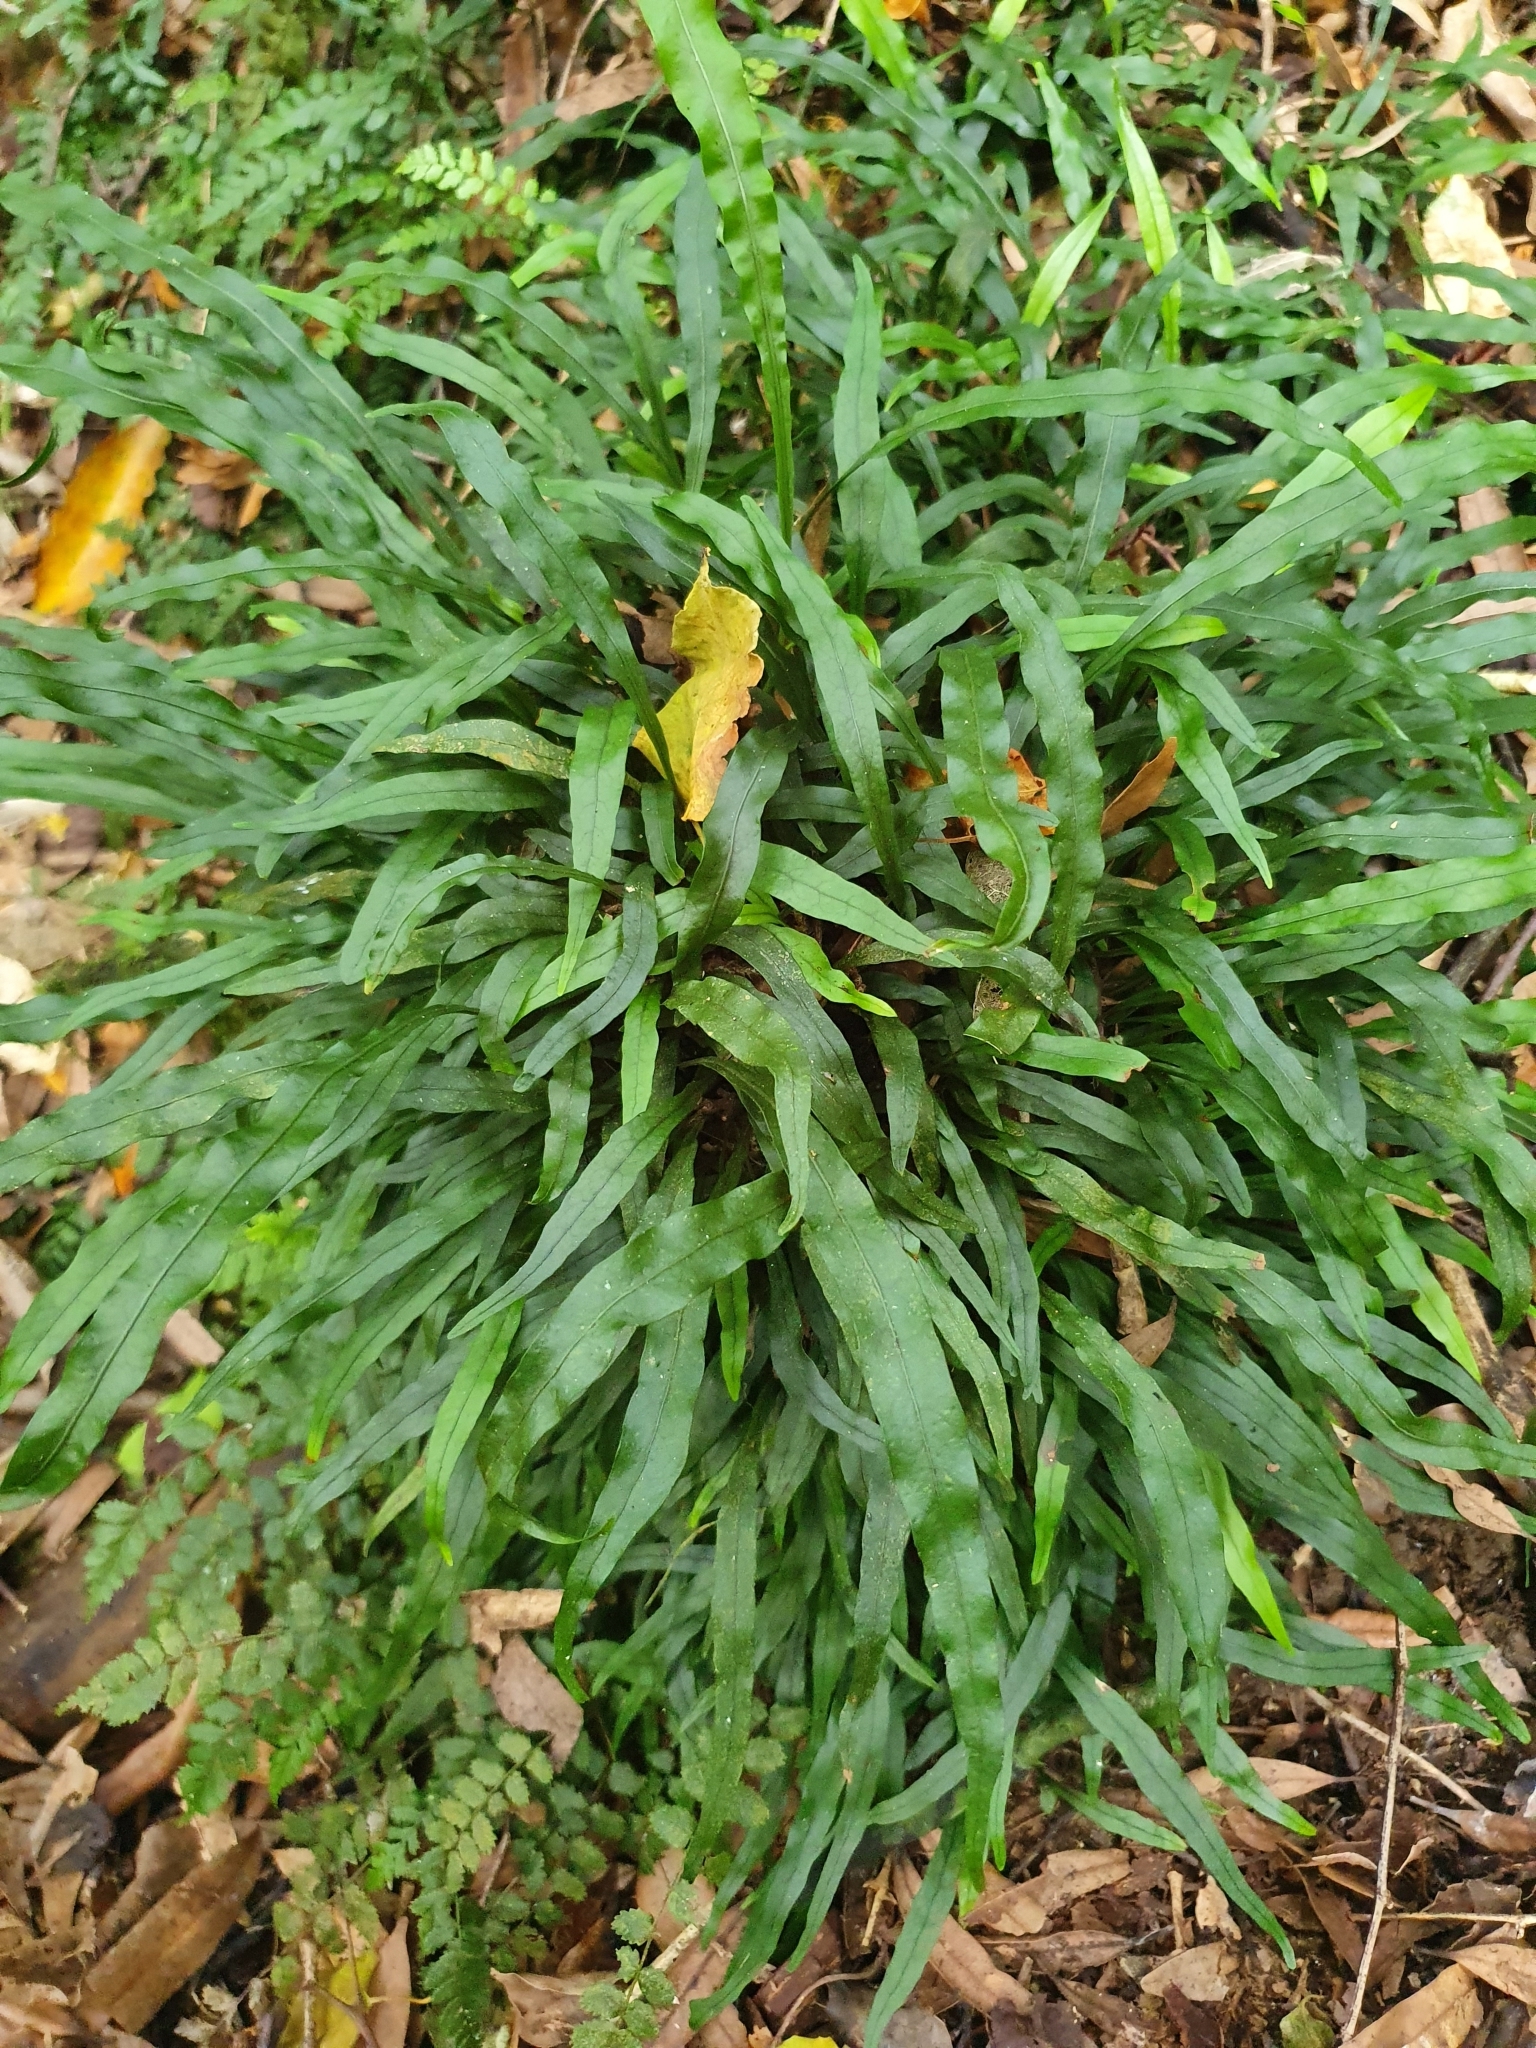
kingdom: Plantae
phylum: Tracheophyta
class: Polypodiopsida
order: Polypodiales
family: Polypodiaceae
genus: Lecanopteris
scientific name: Lecanopteris scandens
